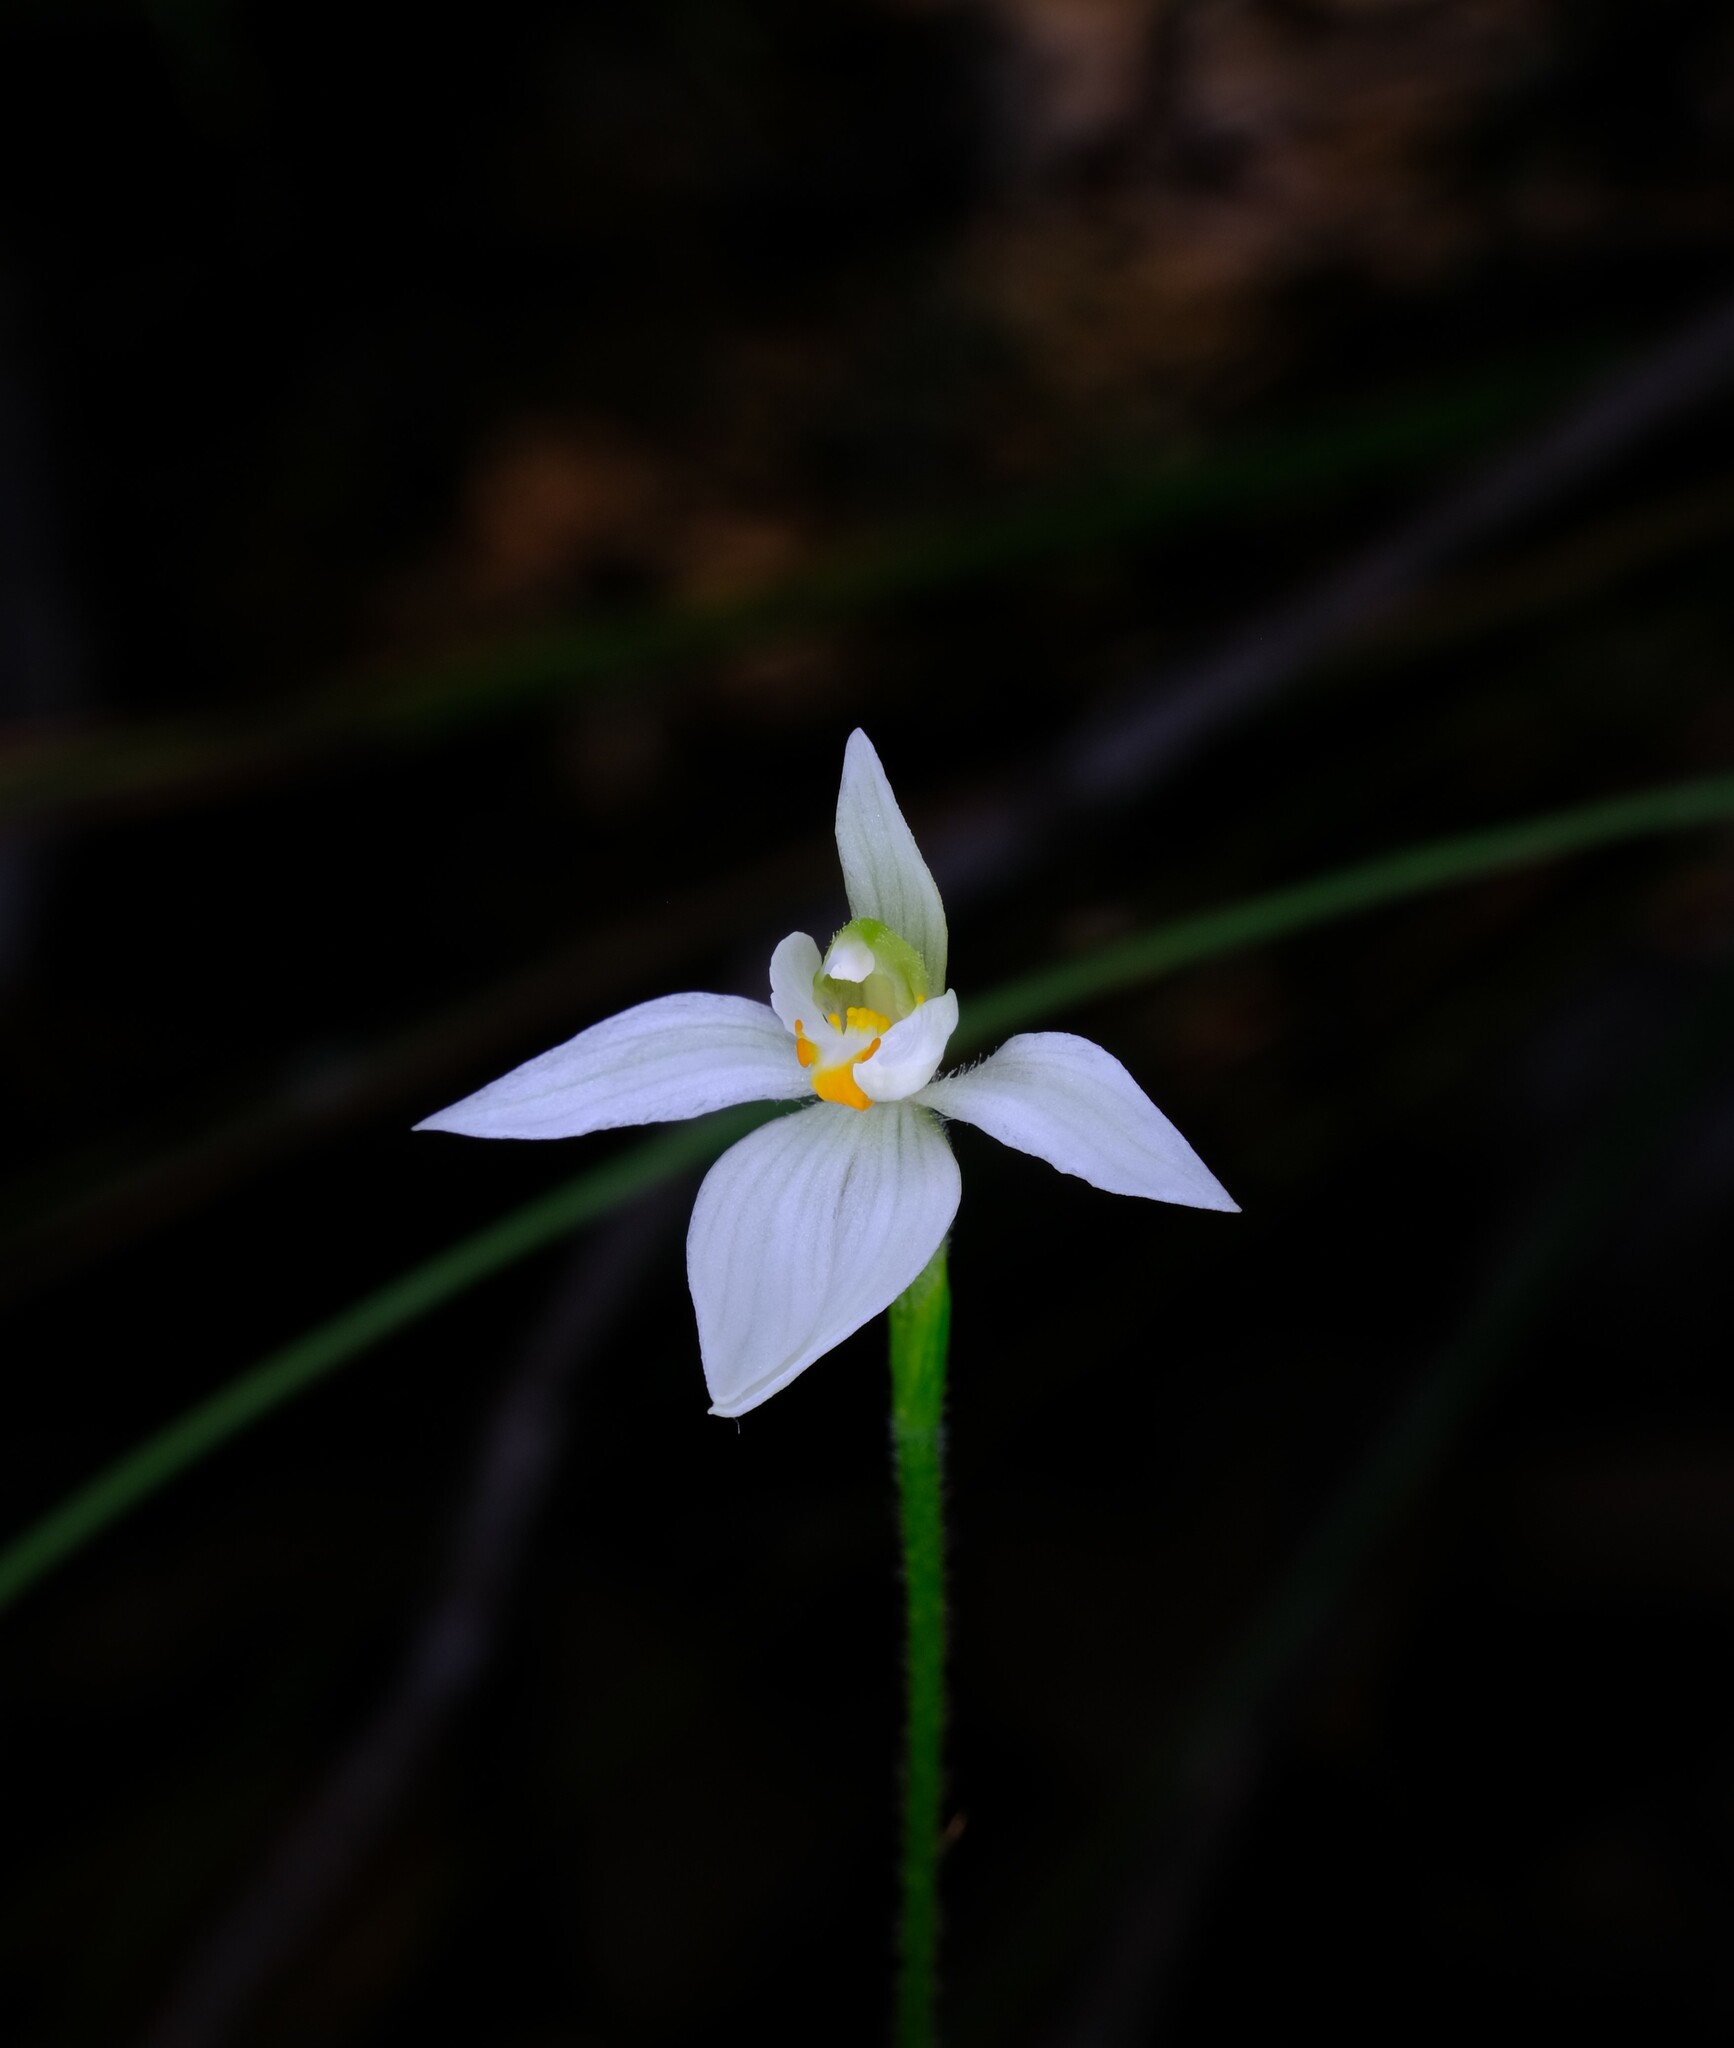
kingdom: Plantae
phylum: Tracheophyta
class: Liliopsida
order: Asparagales
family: Orchidaceae
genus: Caladenia
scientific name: Caladenia aurantiaca
